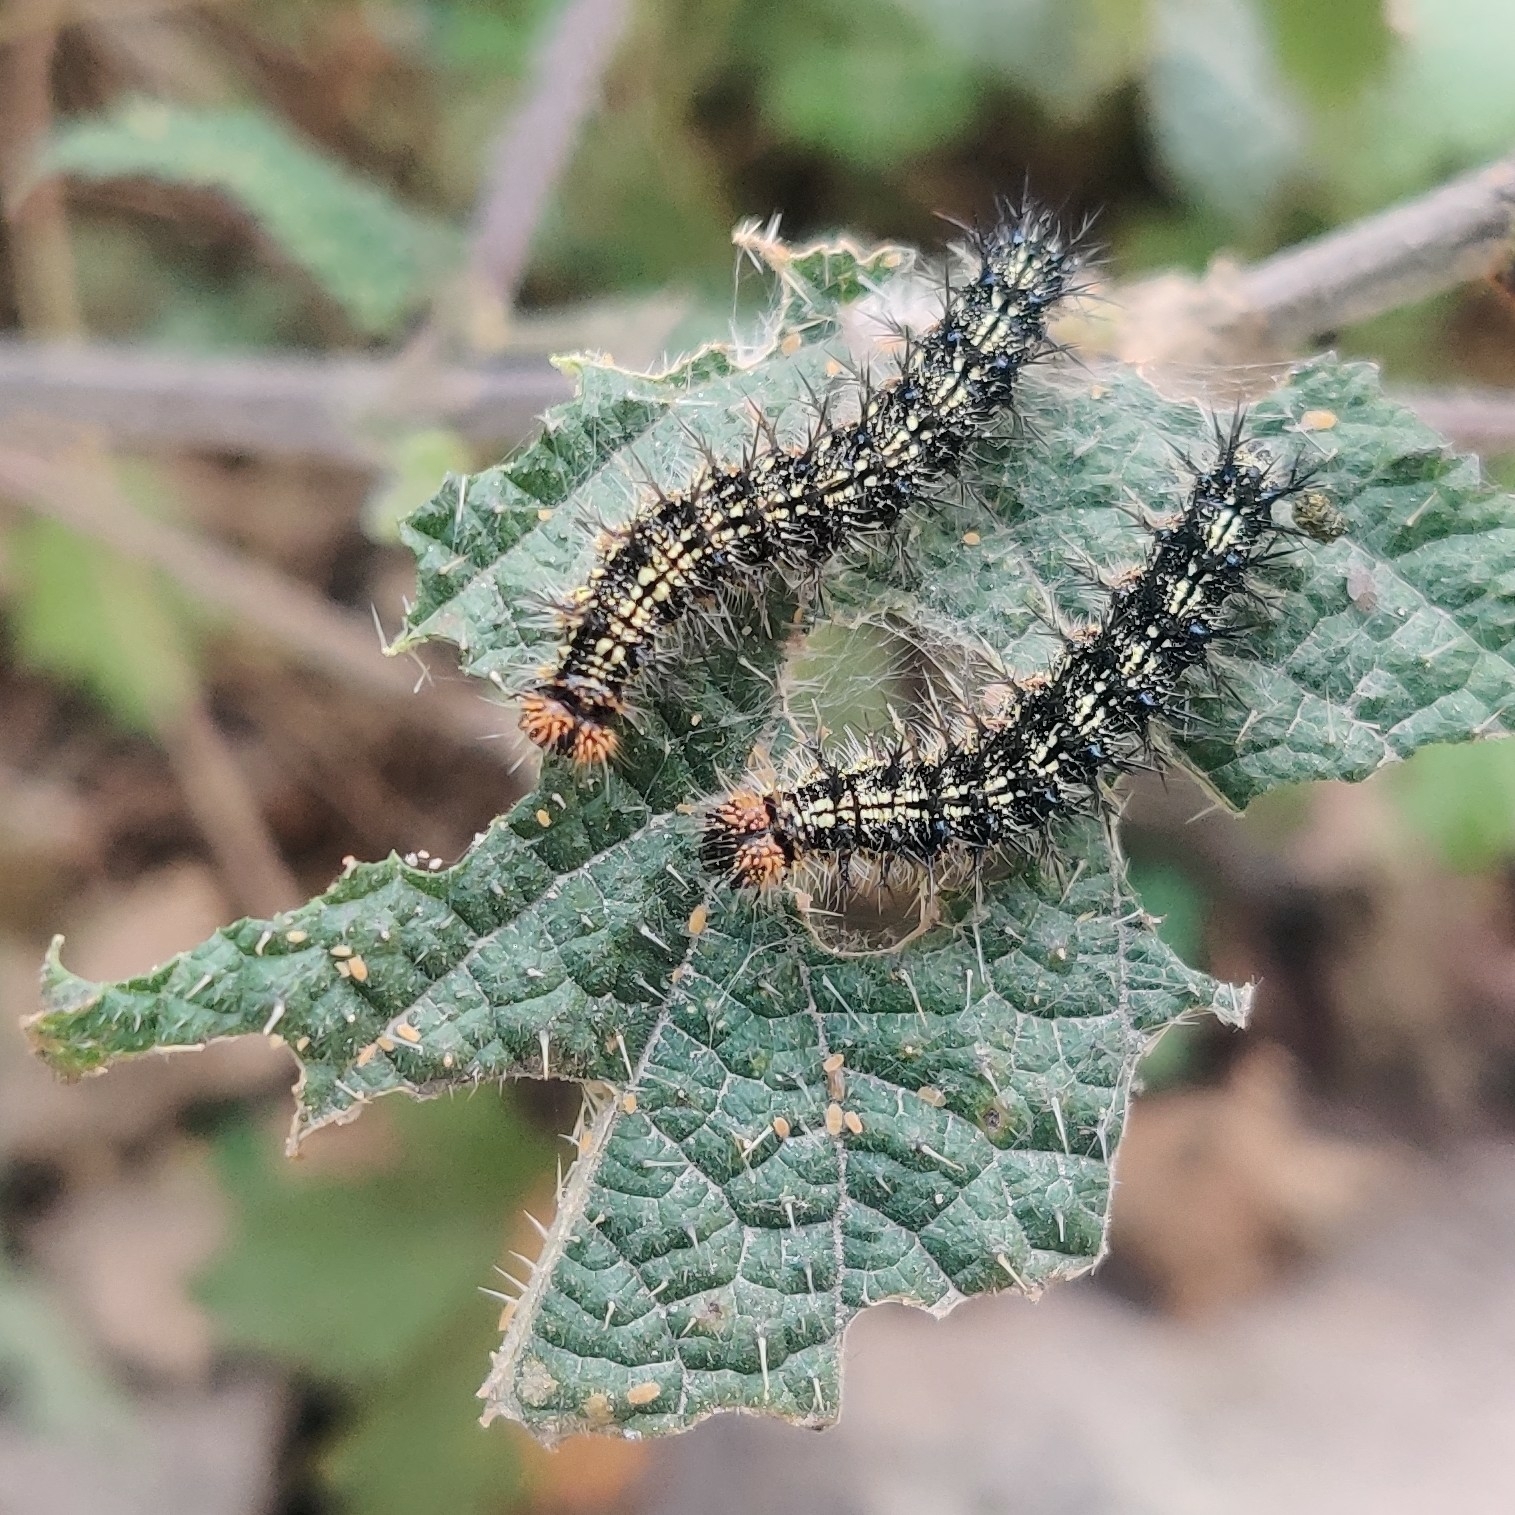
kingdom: Animalia
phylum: Arthropoda
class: Insecta
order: Lepidoptera
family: Nymphalidae
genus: Aglais
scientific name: Aglais caschmirensis
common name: Indian tortoiseshell
